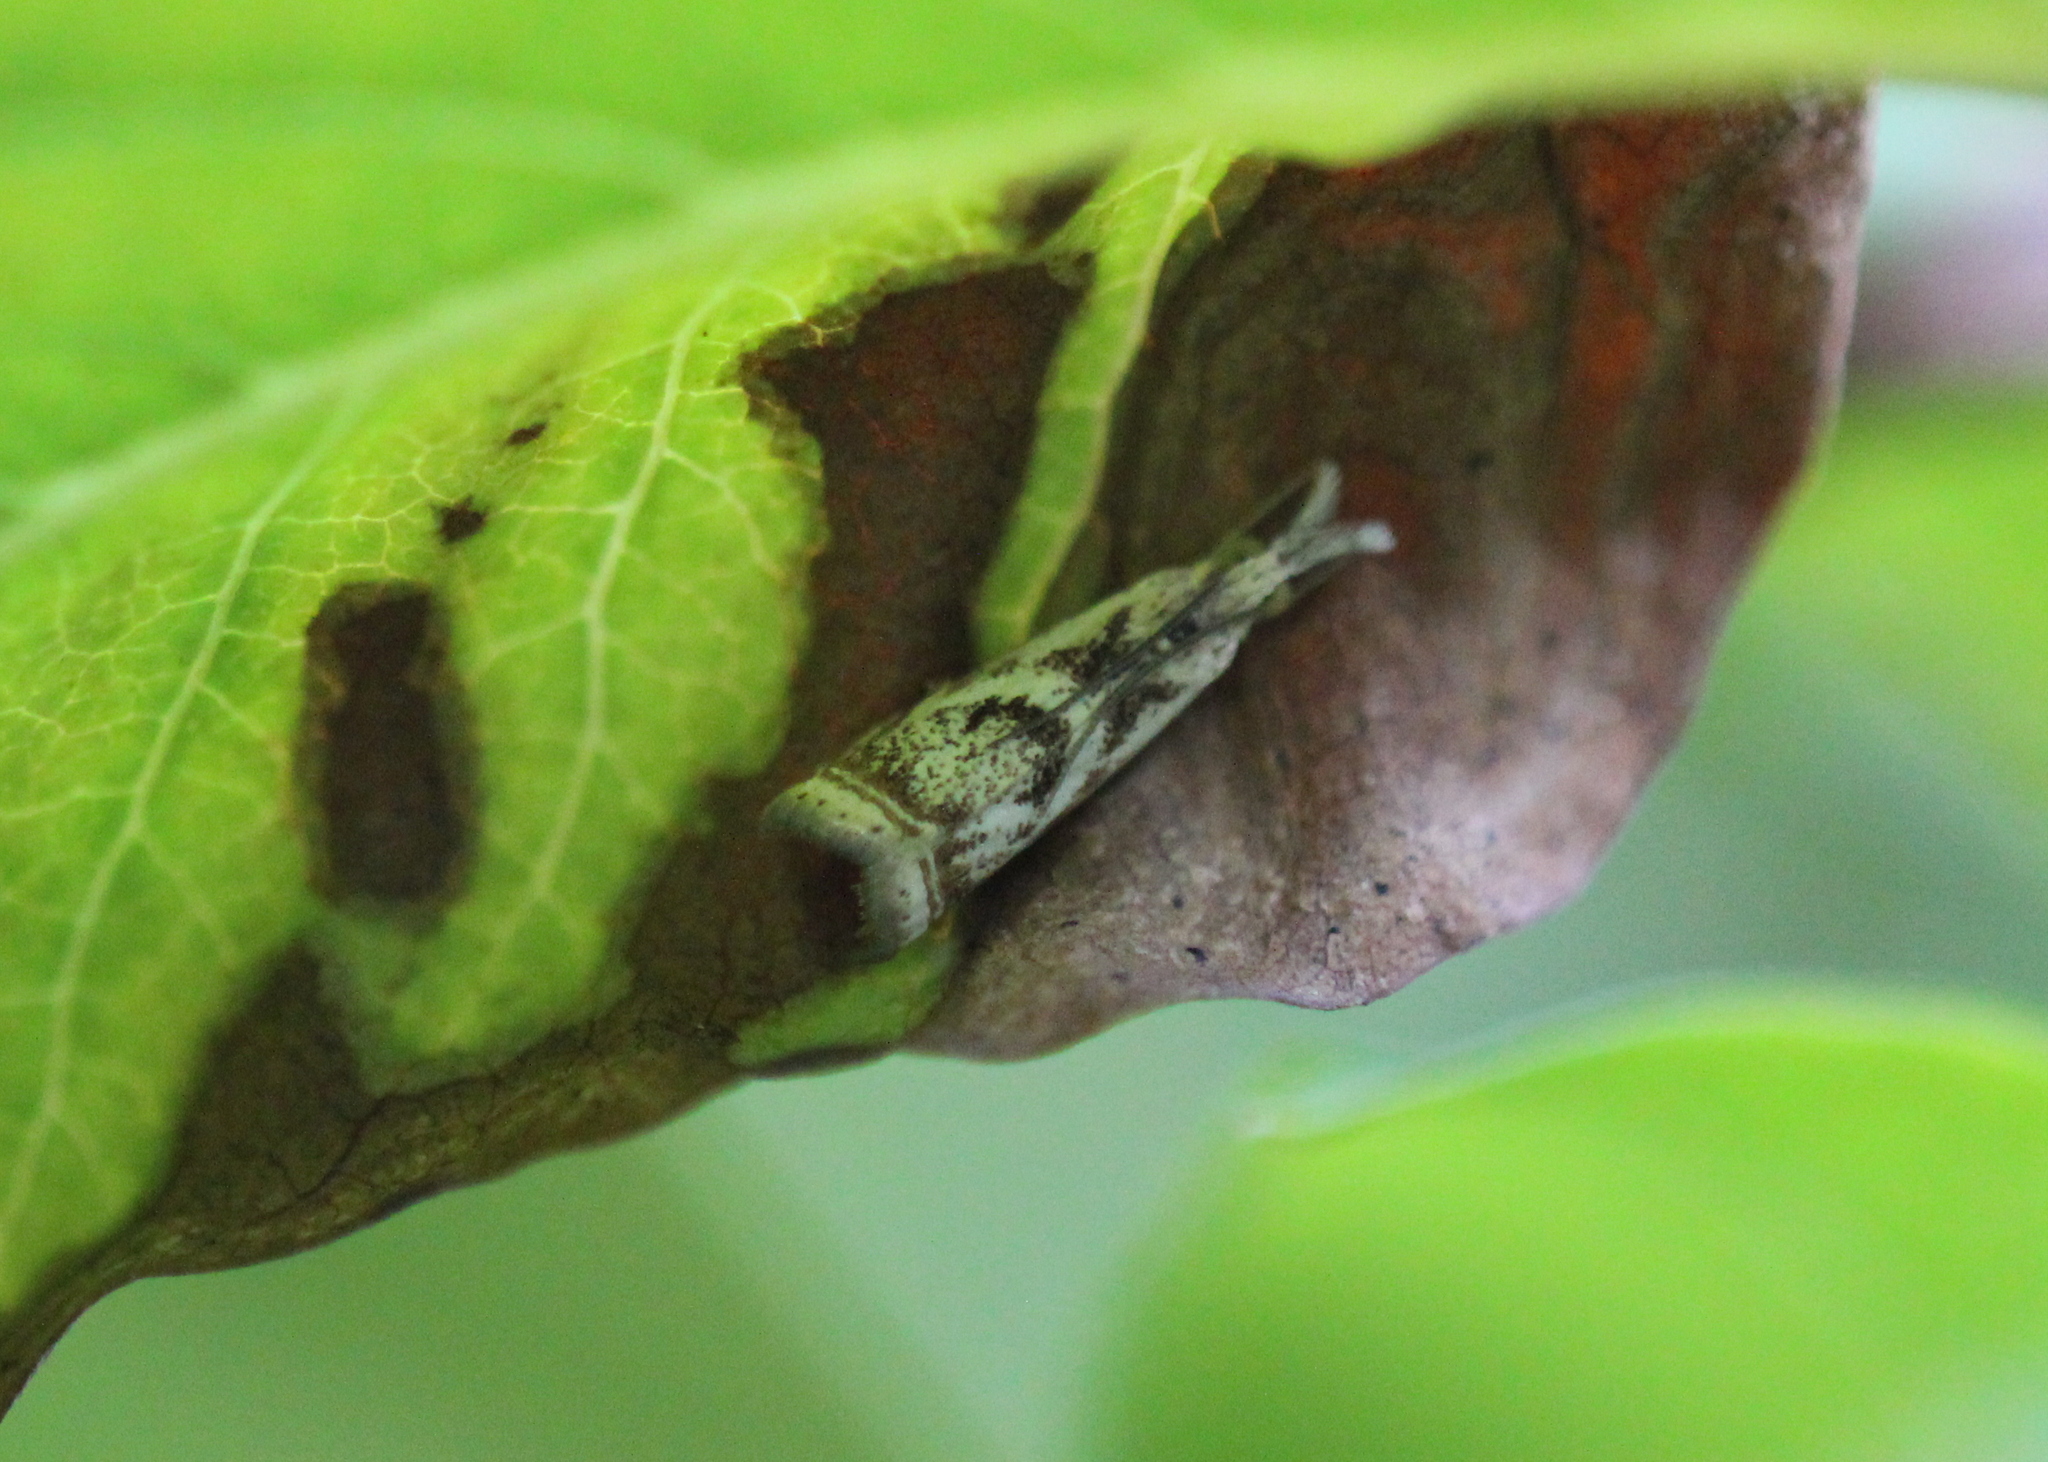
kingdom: Animalia
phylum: Arthropoda
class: Insecta
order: Lepidoptera
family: Crambidae
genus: Microcrambus
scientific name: Microcrambus elegans
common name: Elegant grass-veneer
